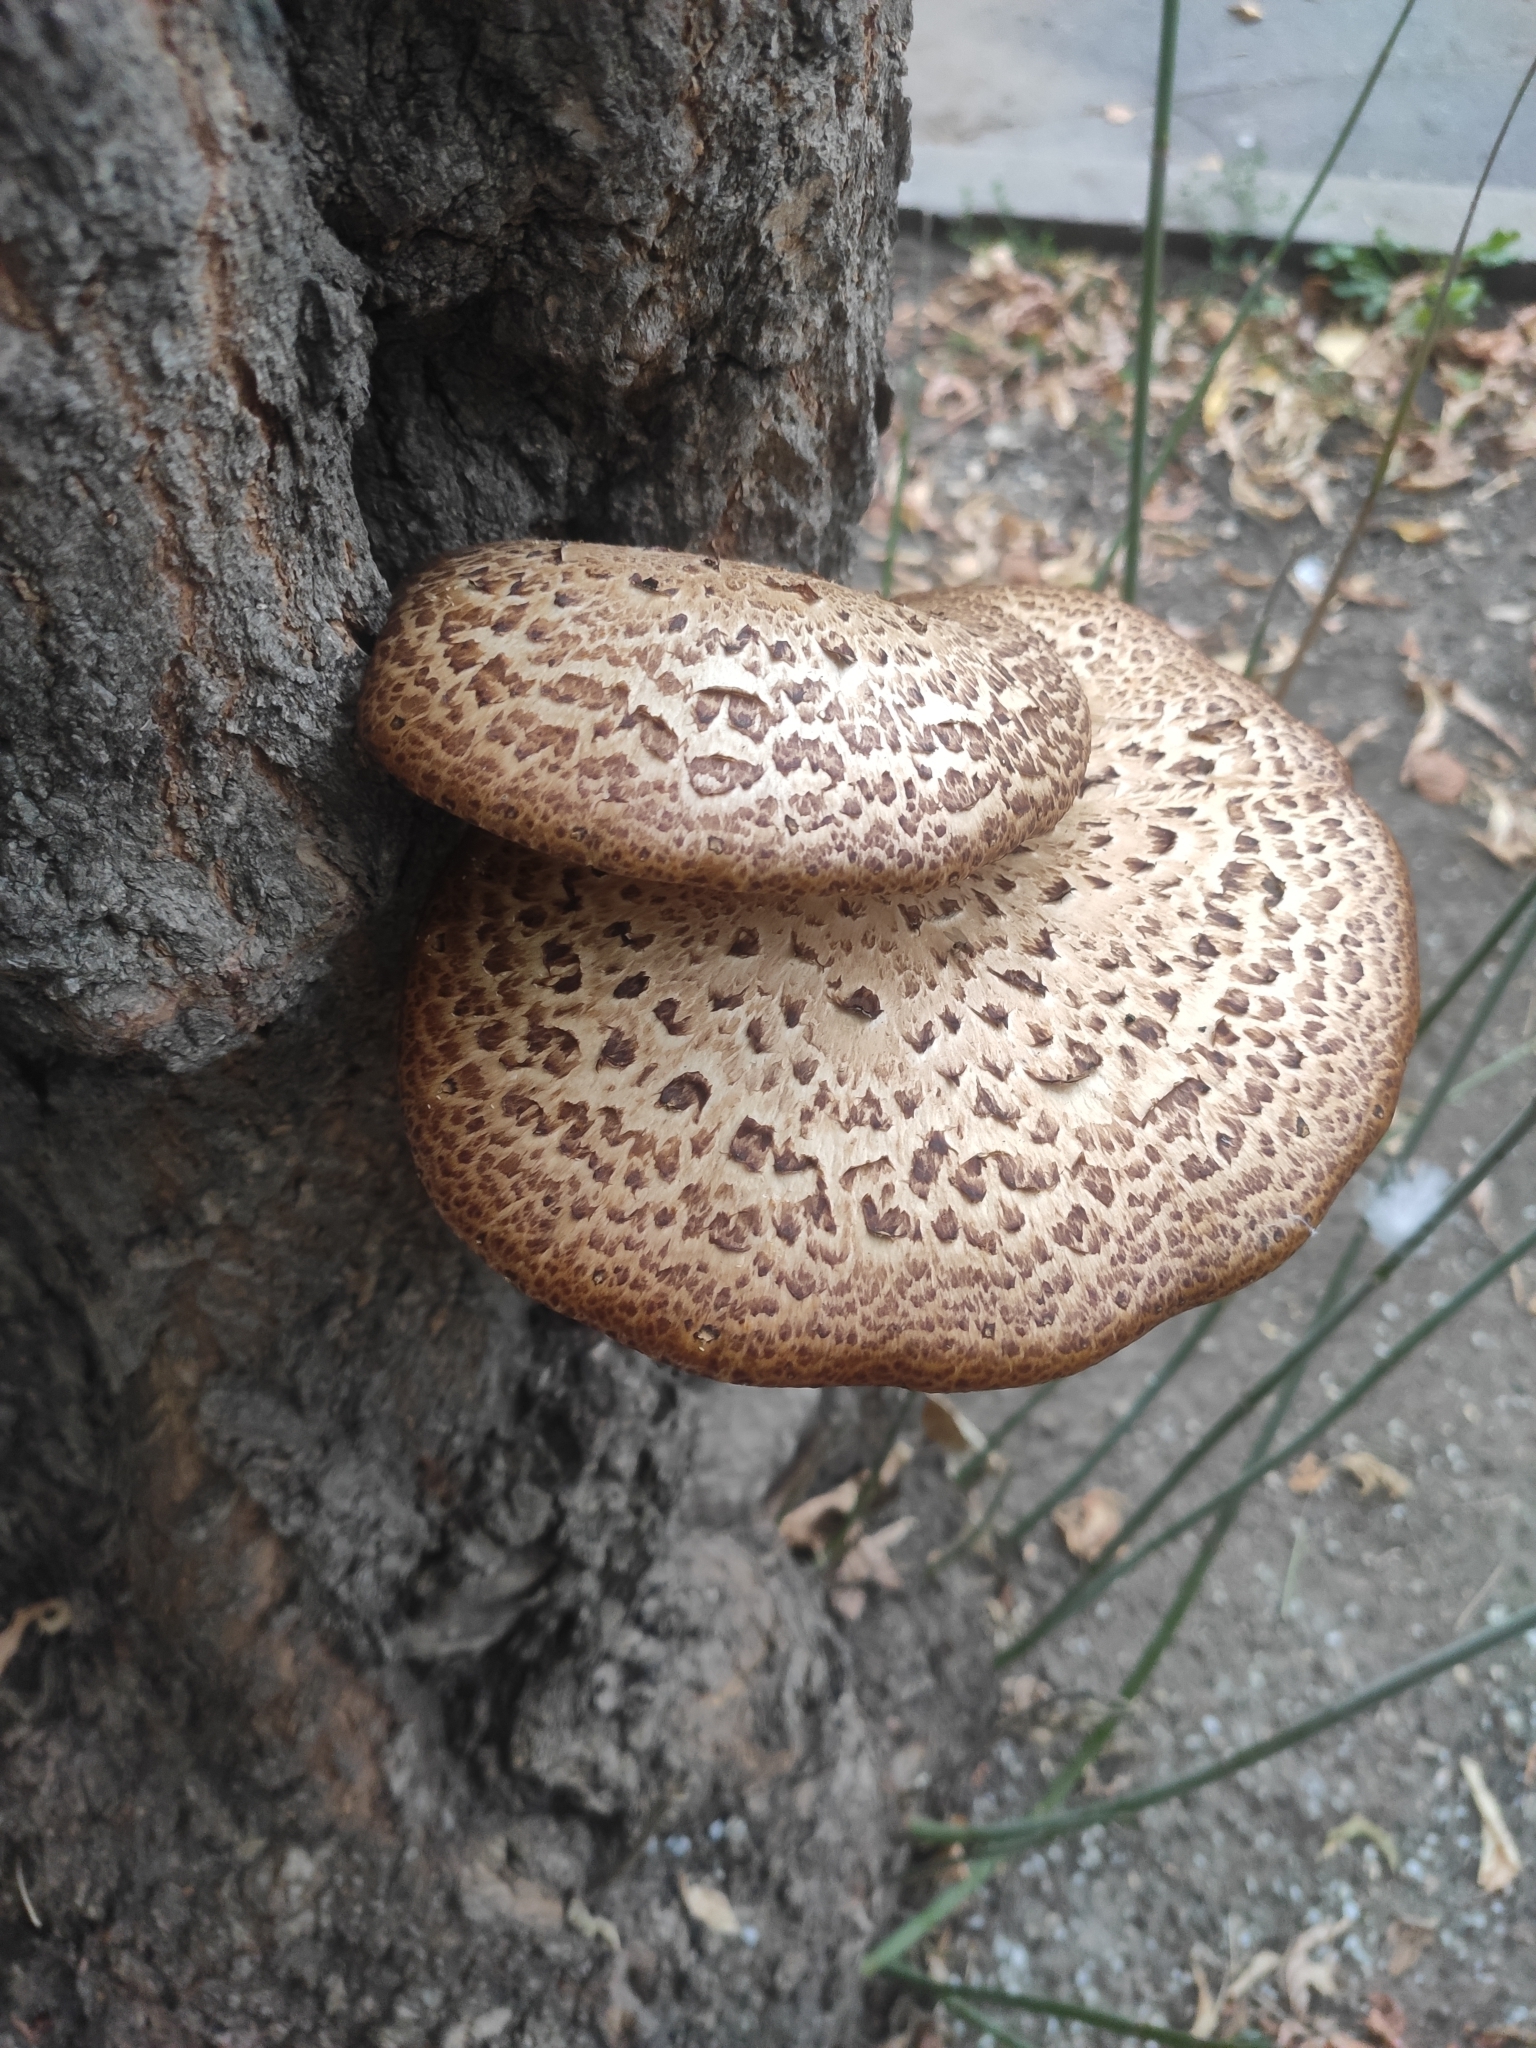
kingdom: Fungi
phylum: Basidiomycota
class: Agaricomycetes
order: Polyporales
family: Polyporaceae
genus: Cerioporus
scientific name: Cerioporus squamosus
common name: Dryad's saddle
